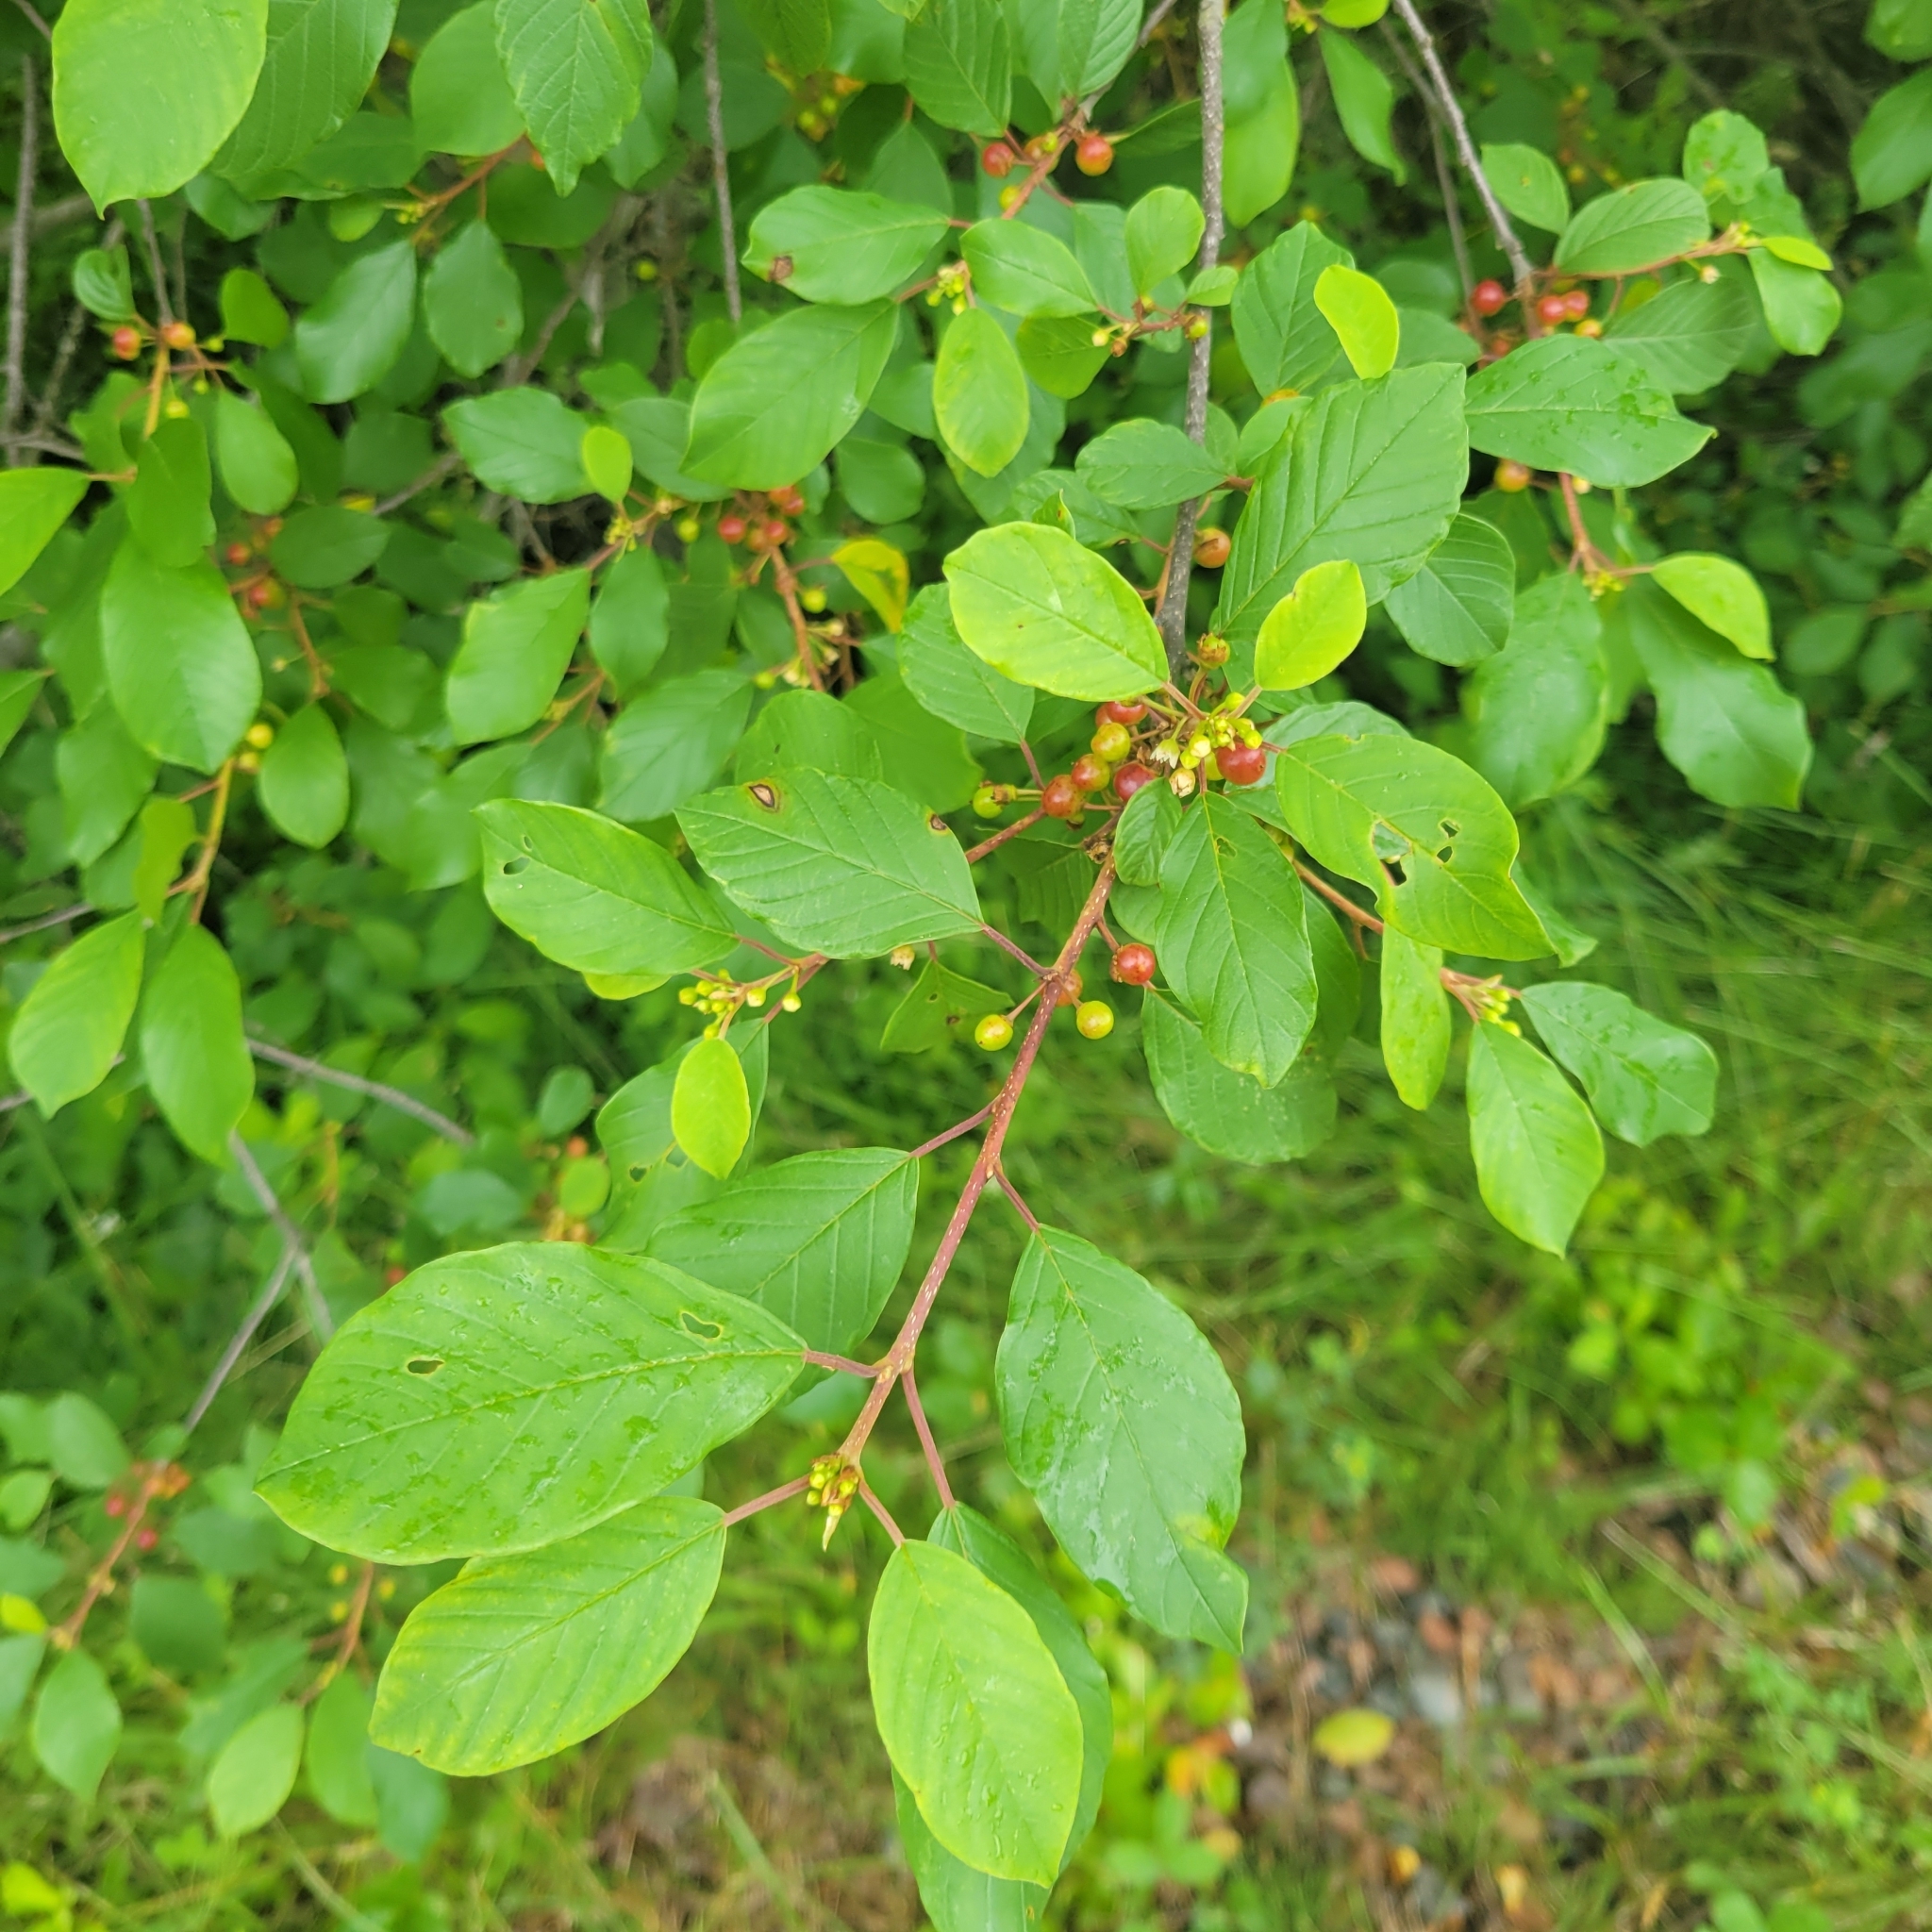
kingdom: Plantae
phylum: Tracheophyta
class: Magnoliopsida
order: Rosales
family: Rhamnaceae
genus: Frangula
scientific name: Frangula alnus
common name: Alder buckthorn
